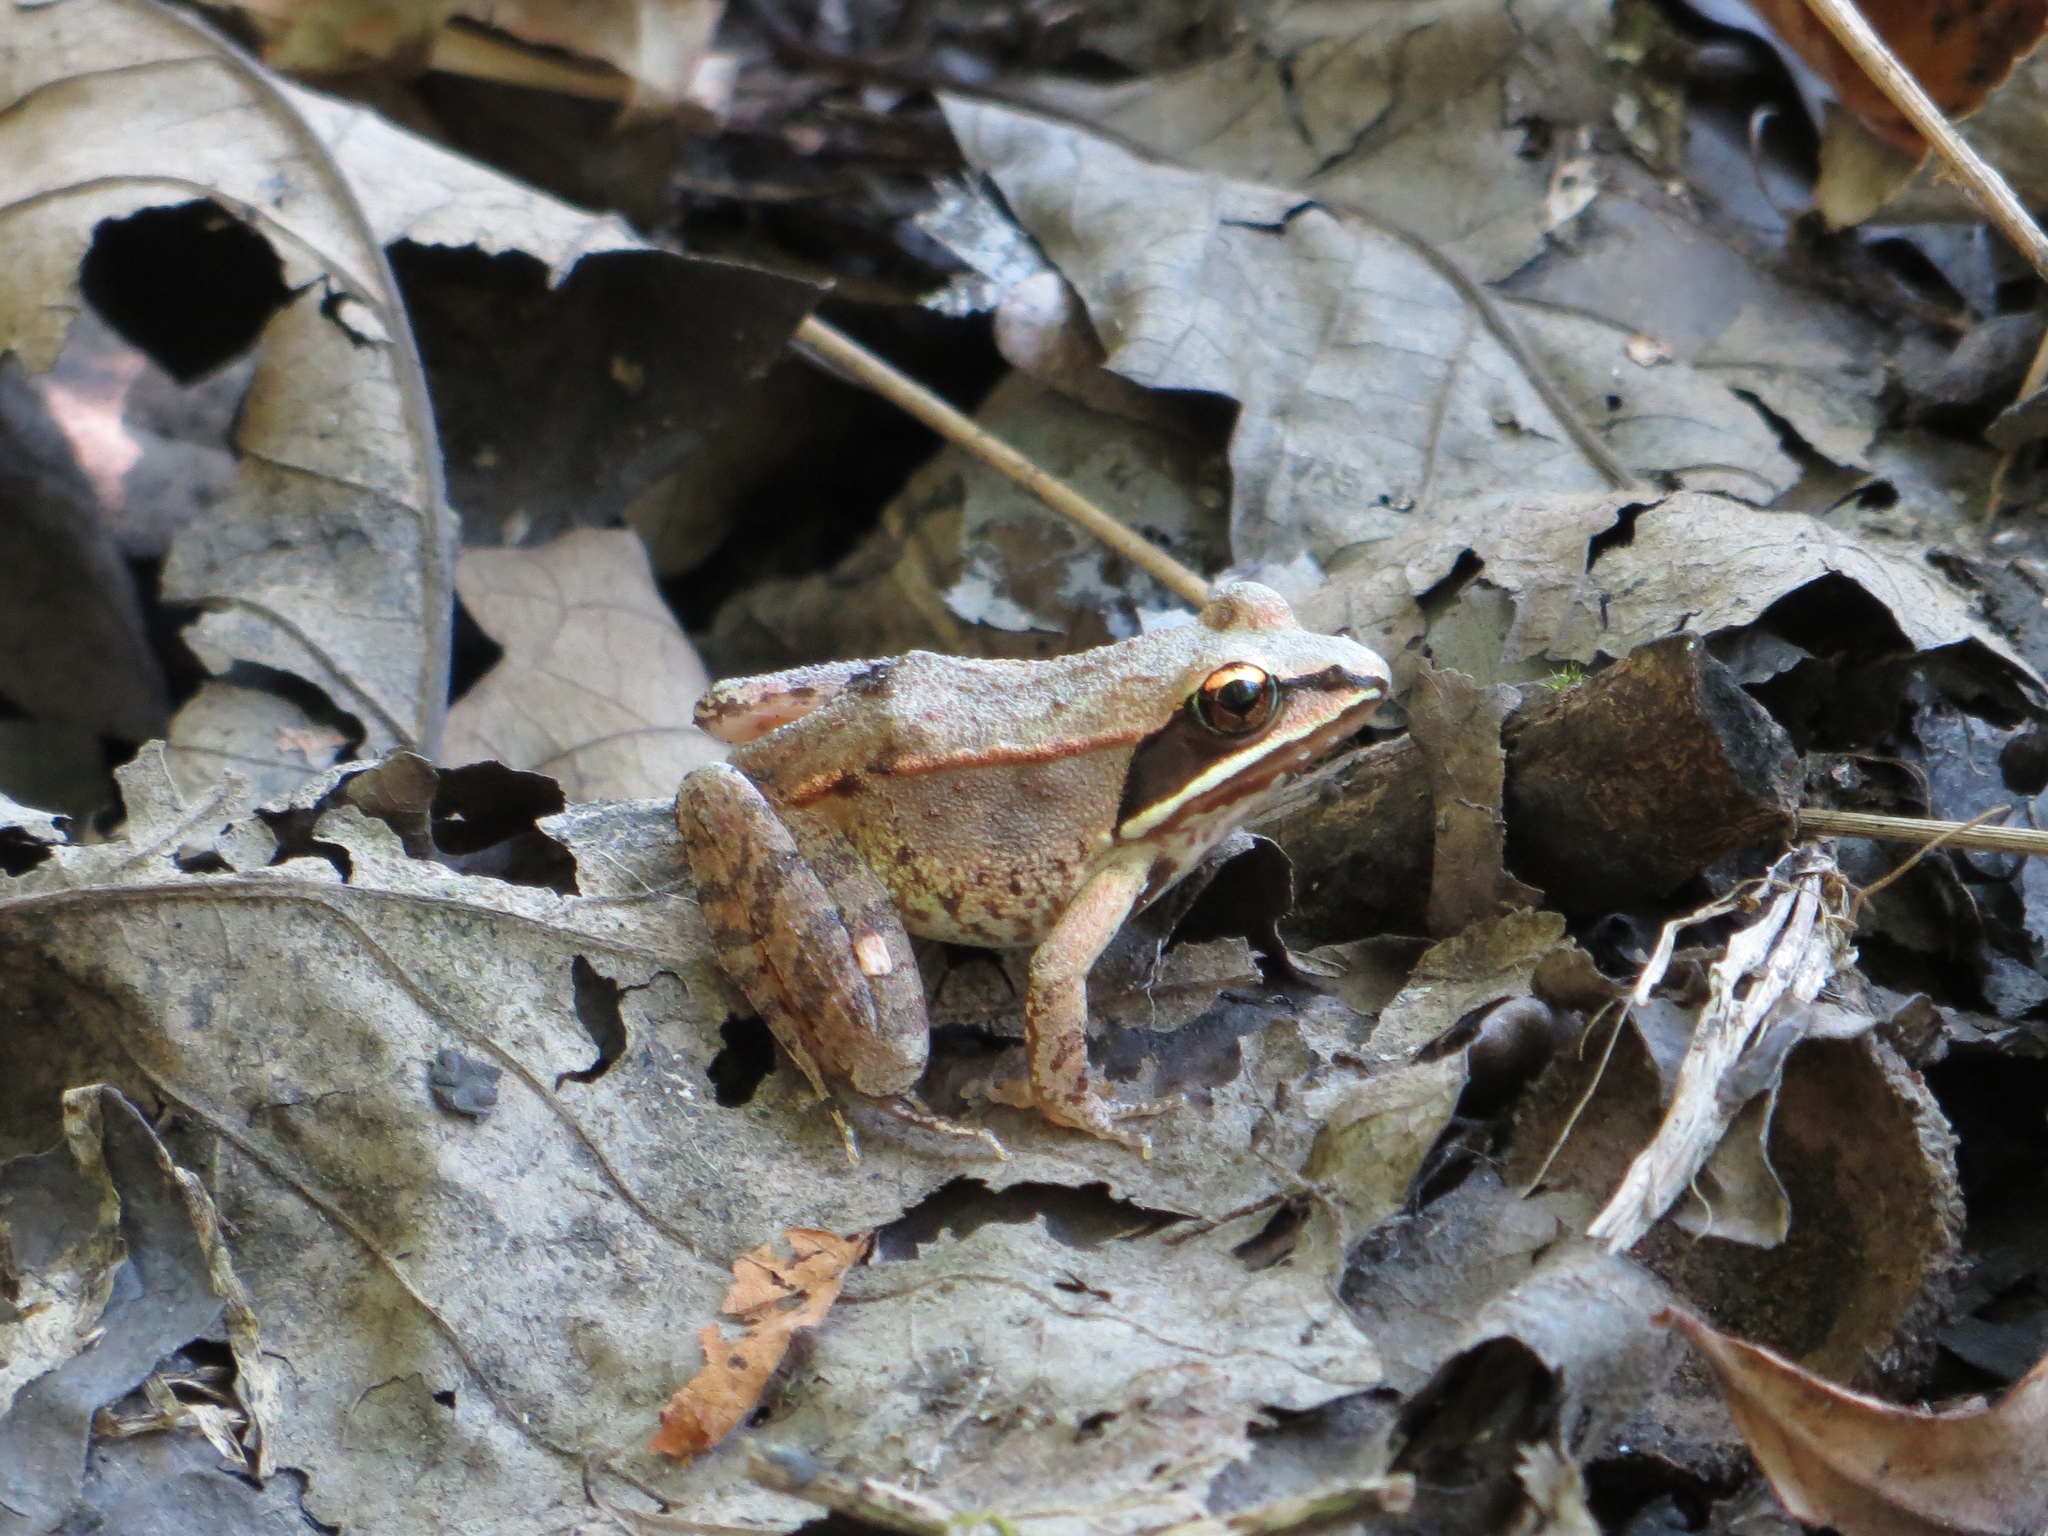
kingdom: Animalia
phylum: Chordata
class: Amphibia
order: Anura
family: Ranidae
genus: Lithobates
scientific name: Lithobates sylvaticus
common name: Wood frog
